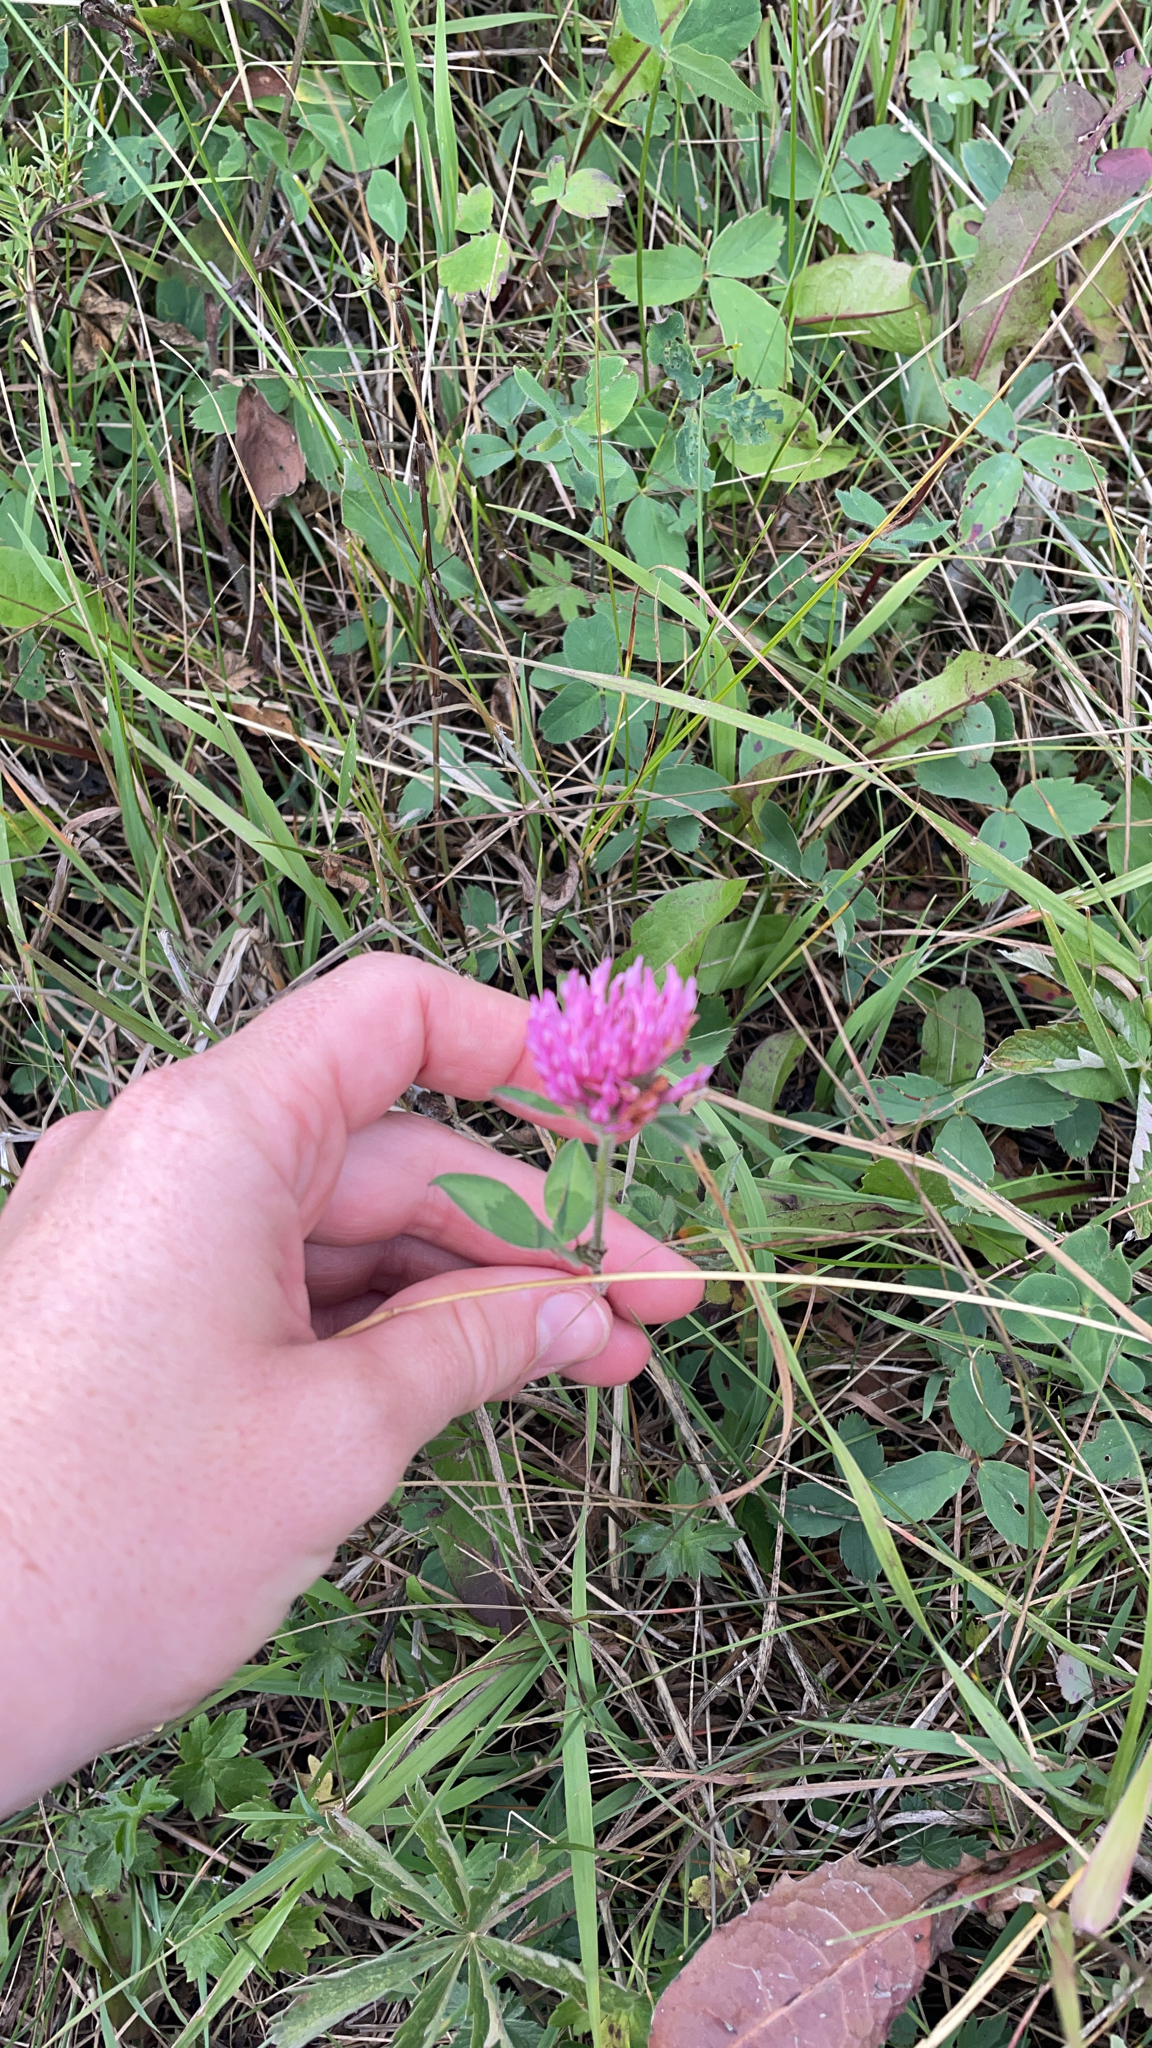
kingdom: Plantae
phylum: Tracheophyta
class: Magnoliopsida
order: Fabales
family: Fabaceae
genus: Trifolium
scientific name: Trifolium pratense
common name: Red clover
